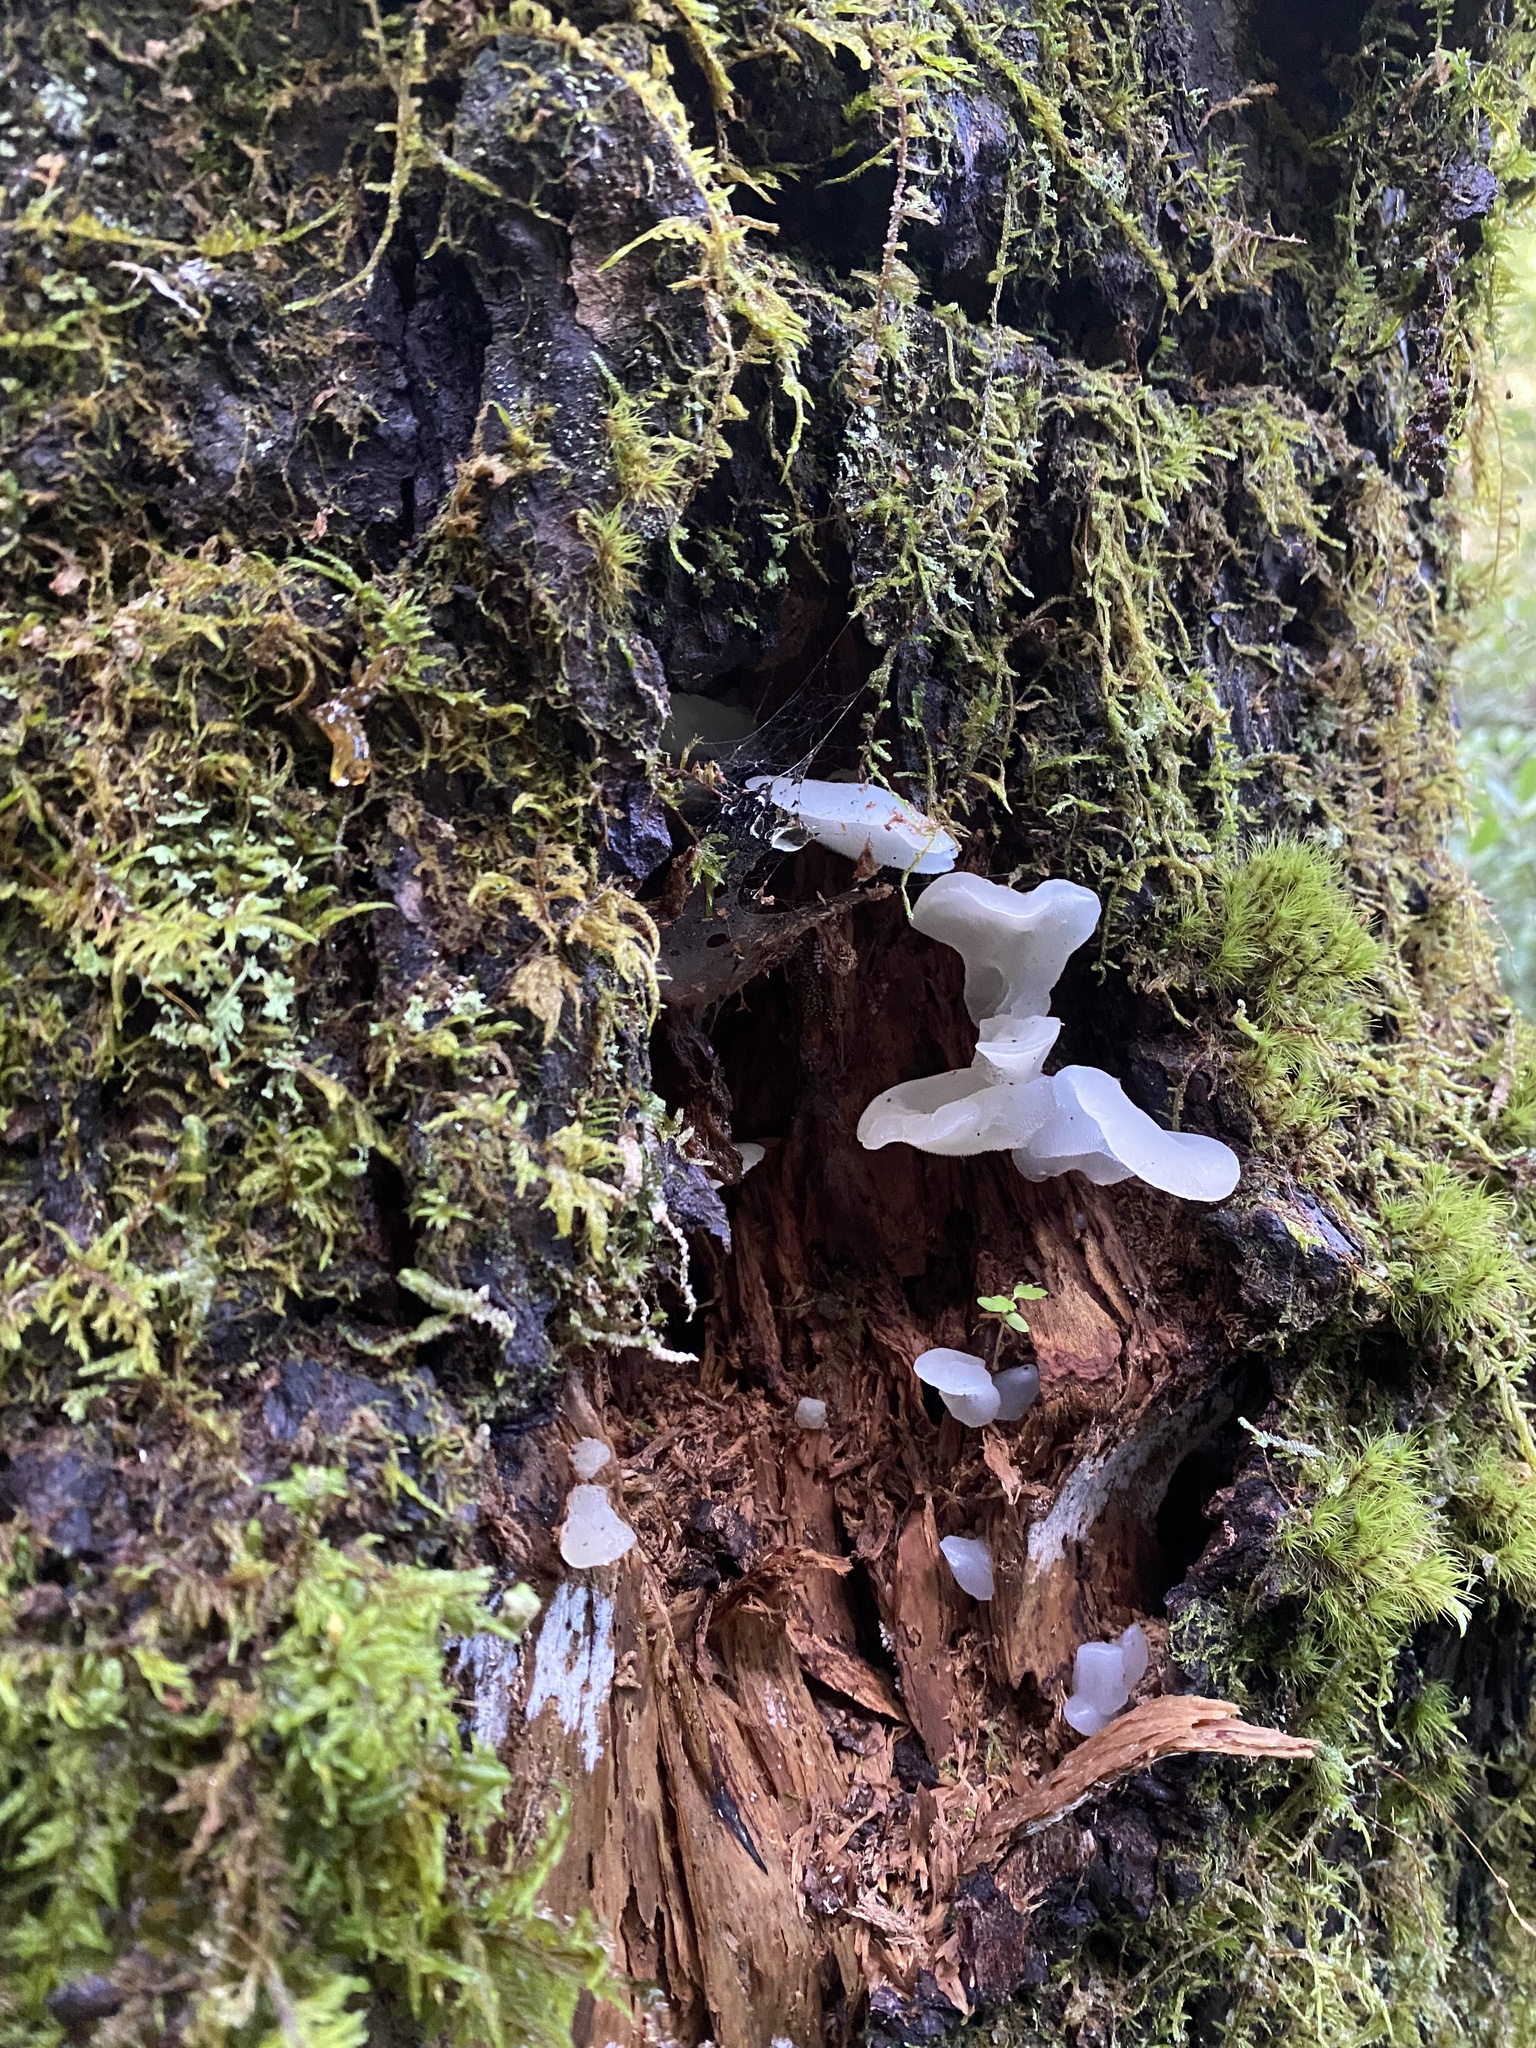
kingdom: Fungi
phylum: Basidiomycota
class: Agaricomycetes
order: Auriculariales
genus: Pseudohydnum
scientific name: Pseudohydnum gelatinosum
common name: Jelly tongue
